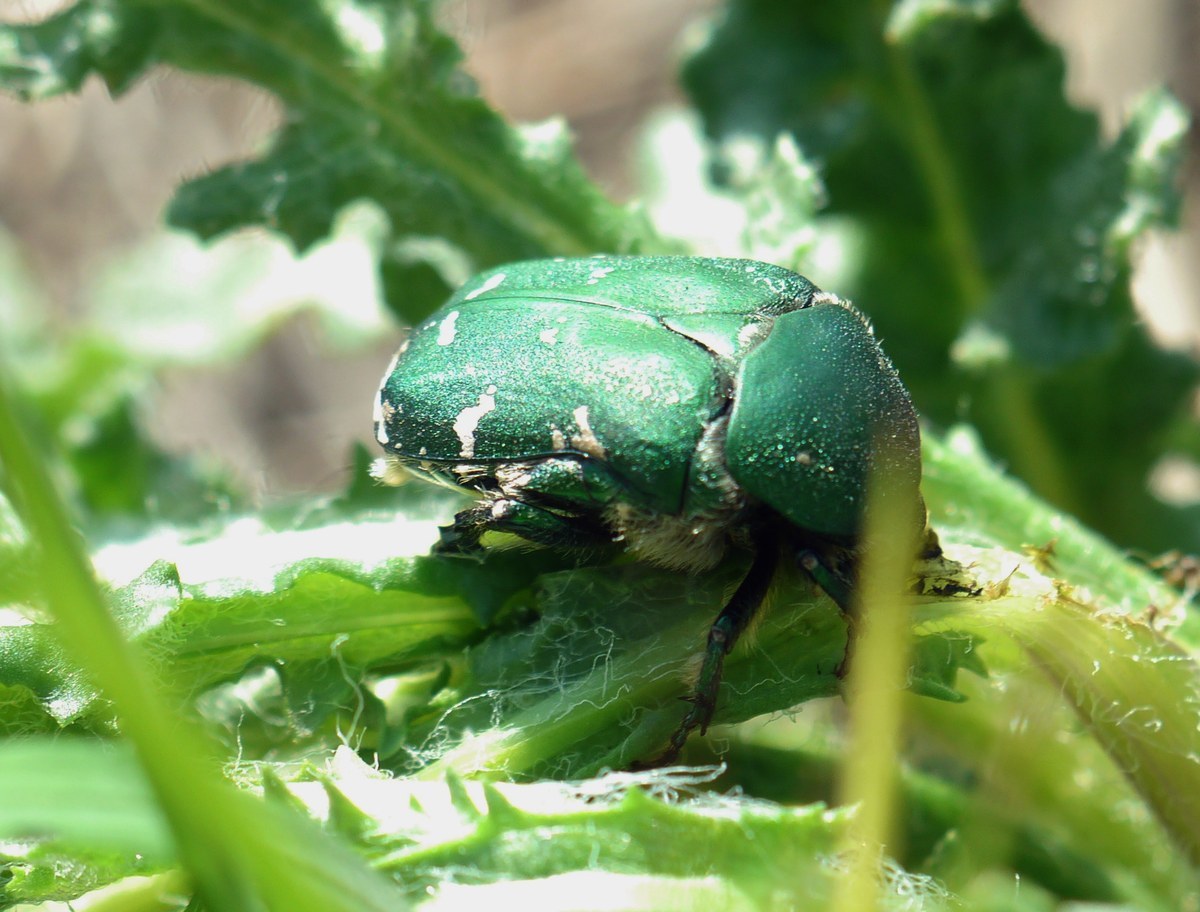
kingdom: Animalia
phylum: Arthropoda
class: Insecta
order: Coleoptera
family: Scarabaeidae
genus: Protaetia
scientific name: Protaetia ungarica
